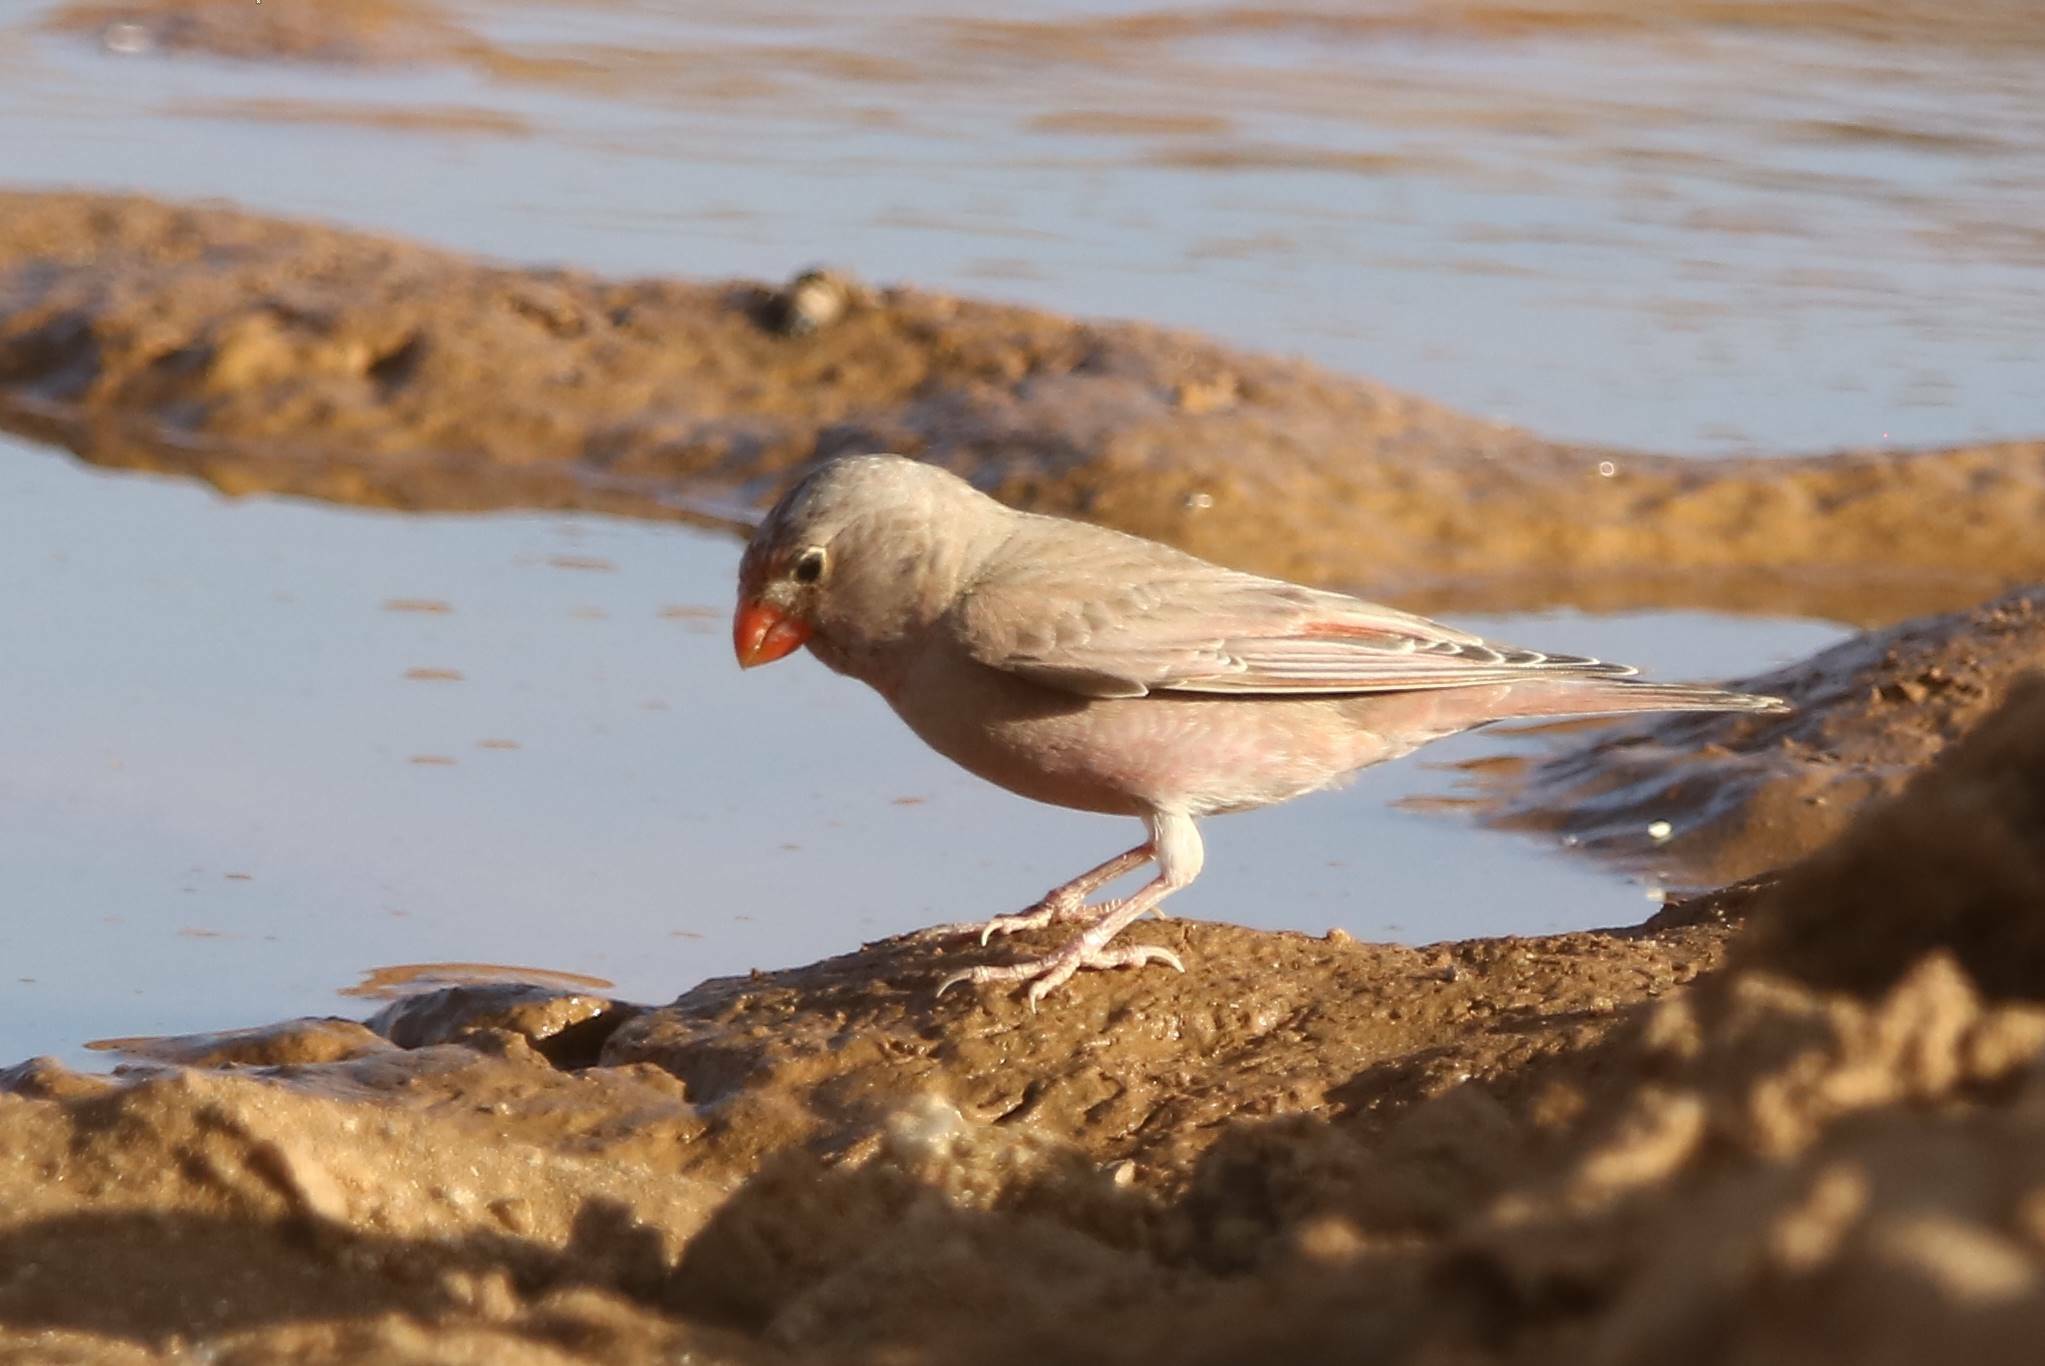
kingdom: Animalia
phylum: Chordata
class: Aves
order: Passeriformes
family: Fringillidae
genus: Bucanetes
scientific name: Bucanetes githagineus
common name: Trumpeter finch
